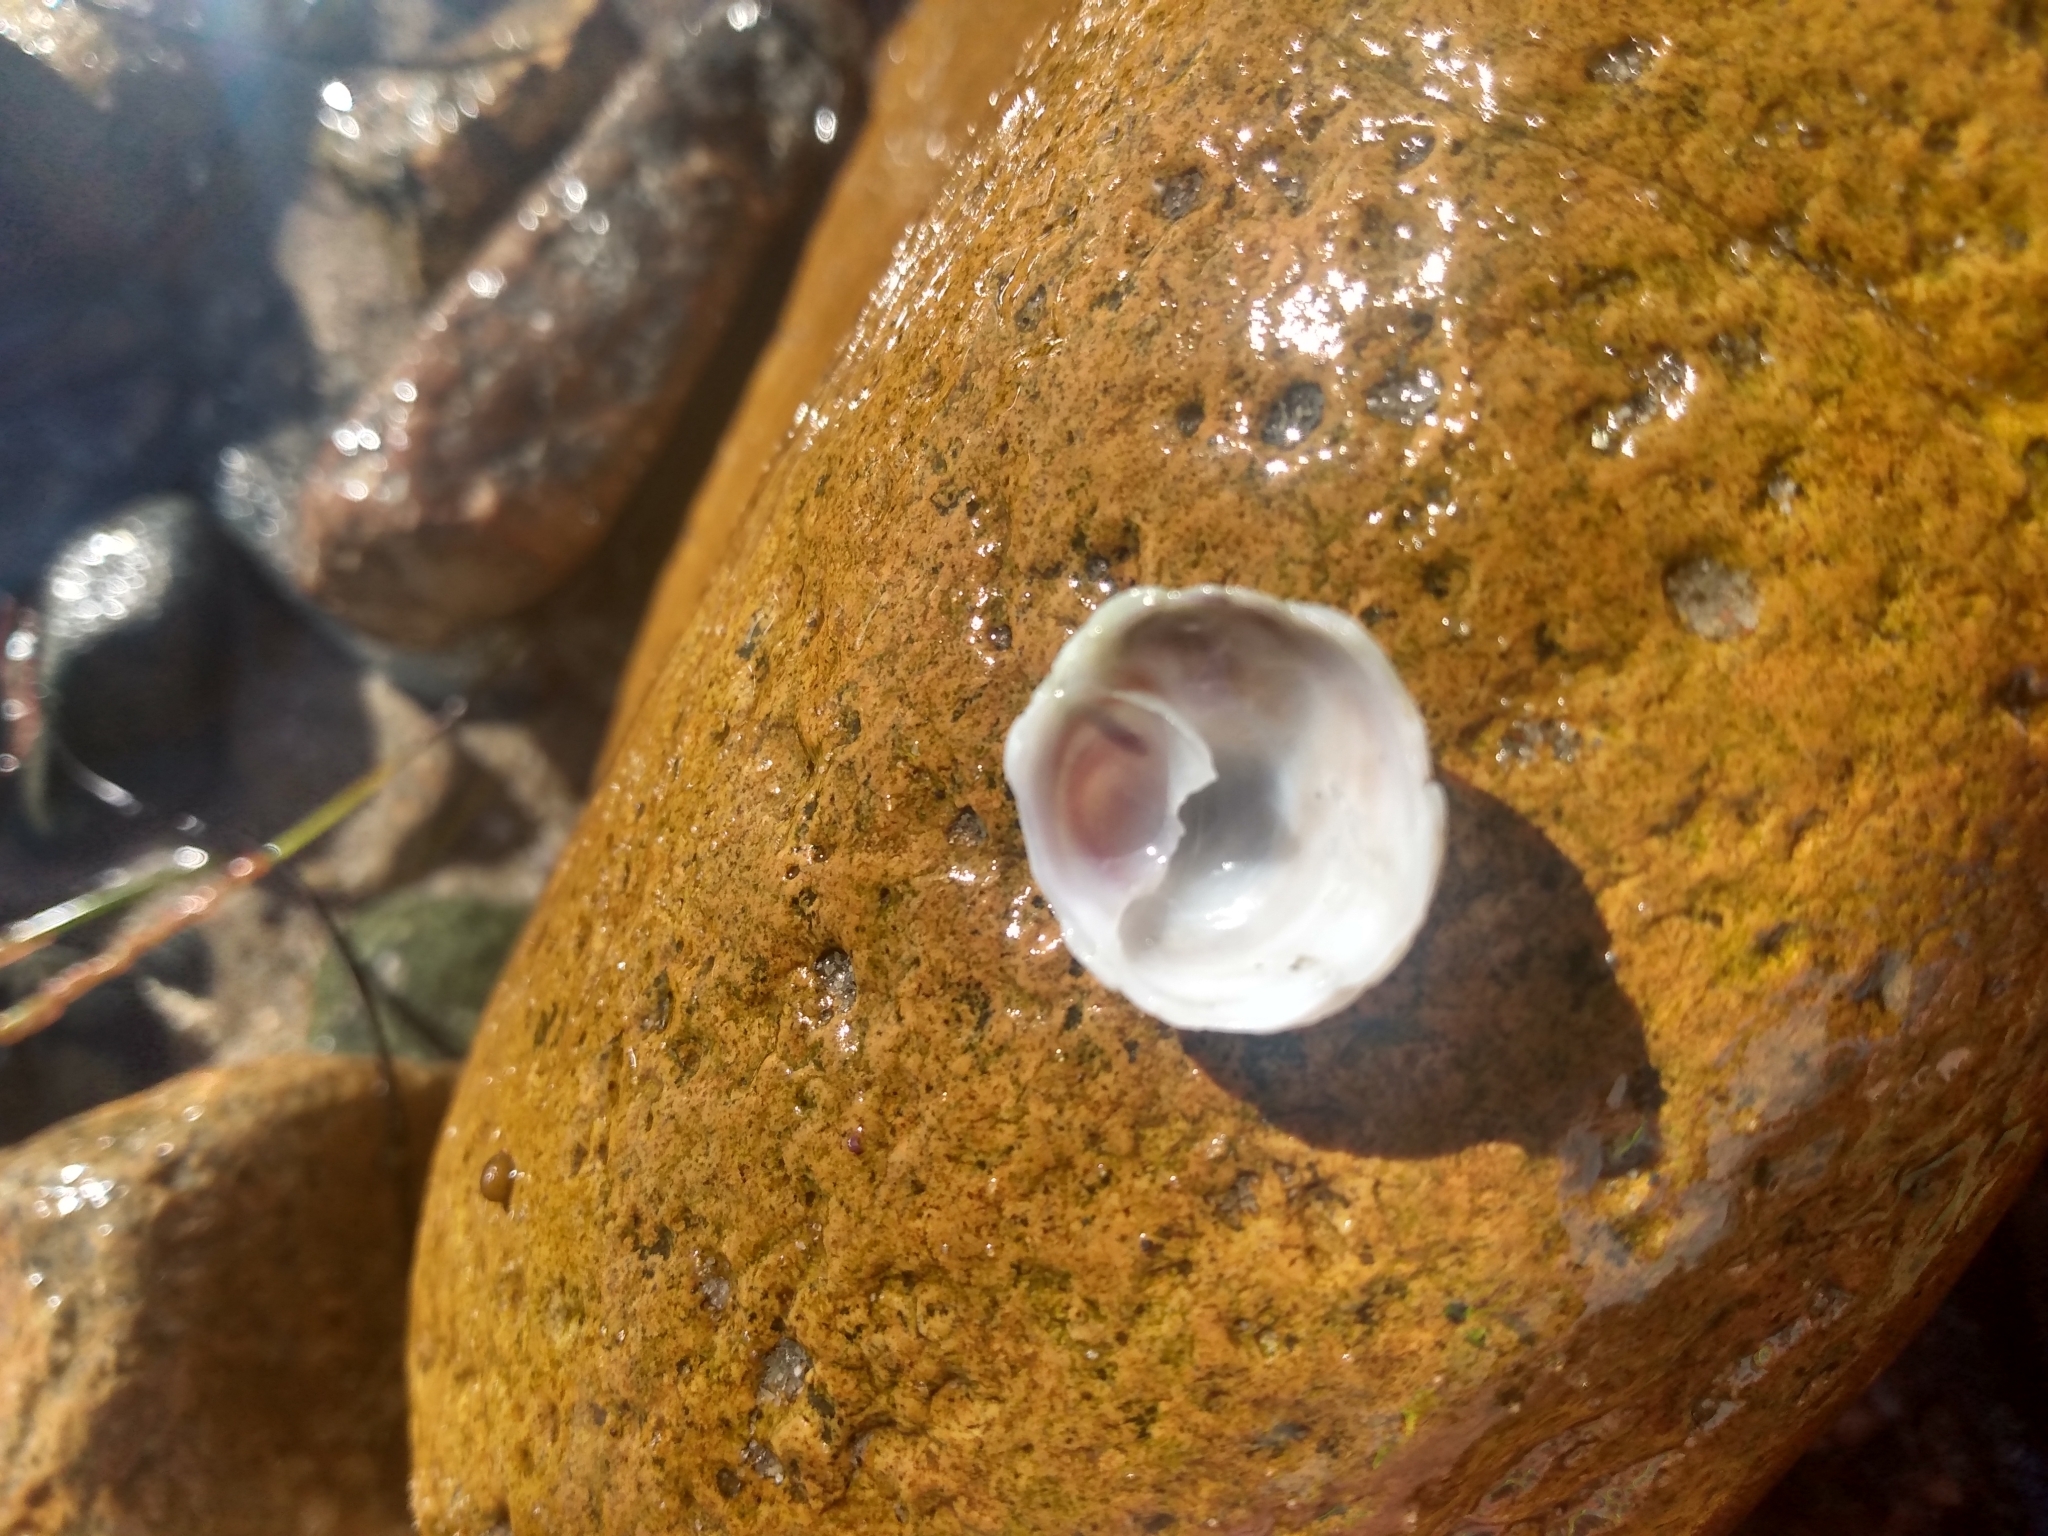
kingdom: Animalia
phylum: Mollusca
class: Gastropoda
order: Littorinimorpha
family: Calyptraeidae
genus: Crepipatella
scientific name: Crepipatella lingulata
